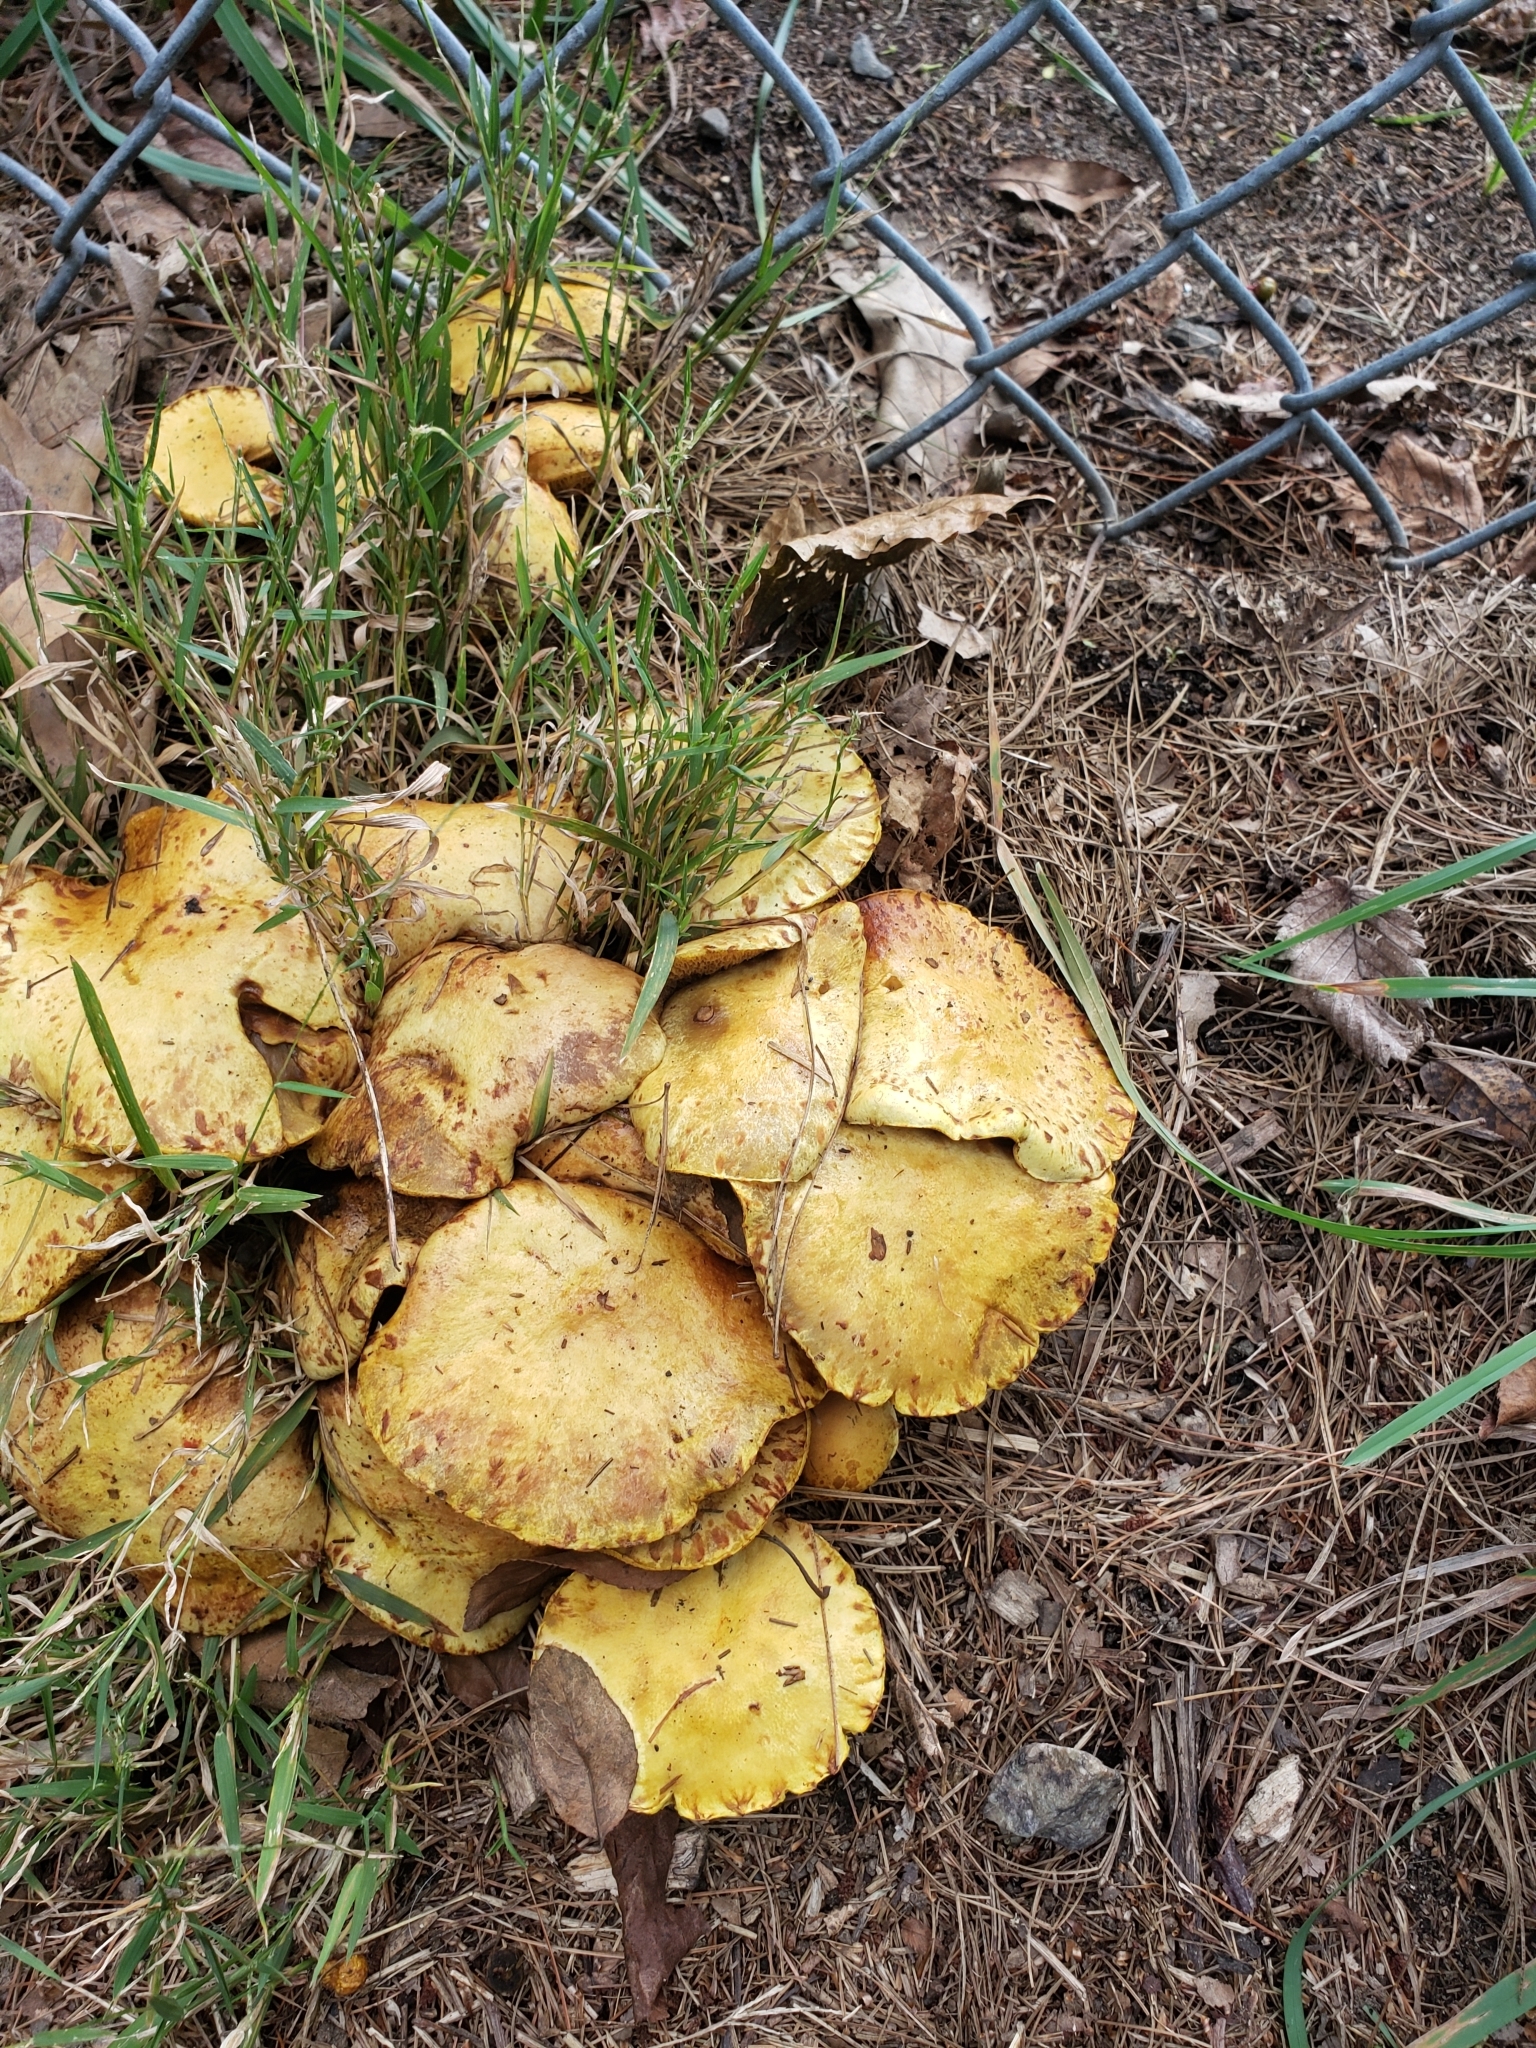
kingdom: Fungi
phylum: Basidiomycota
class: Agaricomycetes
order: Boletales
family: Suillaceae
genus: Suillus
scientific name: Suillus americanus
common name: Chicken fat mushroom
